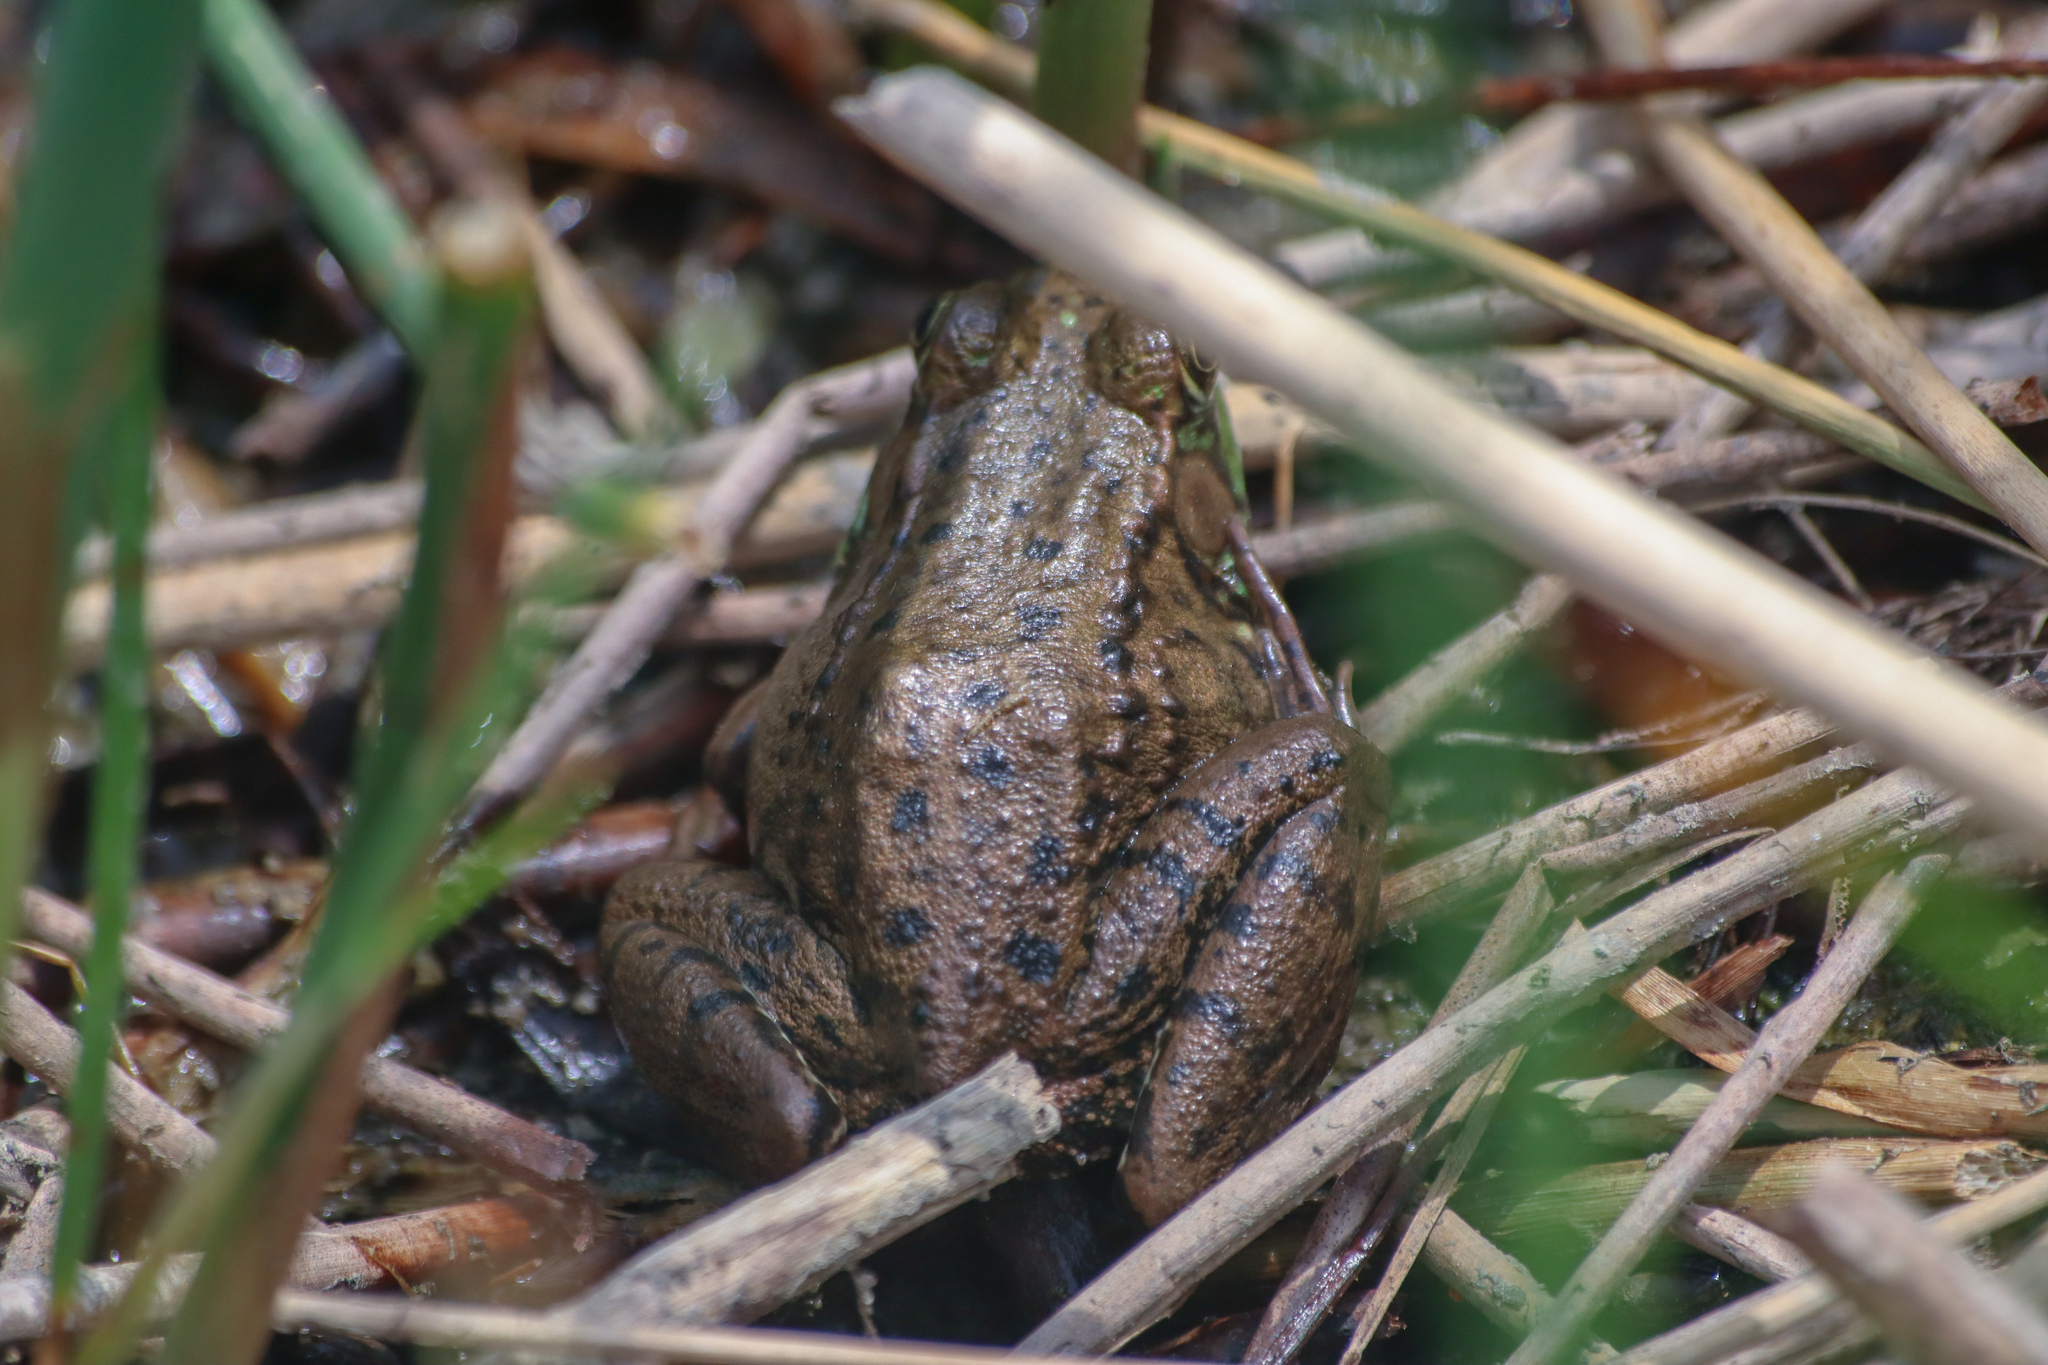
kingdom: Animalia
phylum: Chordata
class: Amphibia
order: Anura
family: Ranidae
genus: Lithobates
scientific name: Lithobates clamitans
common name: Green frog
